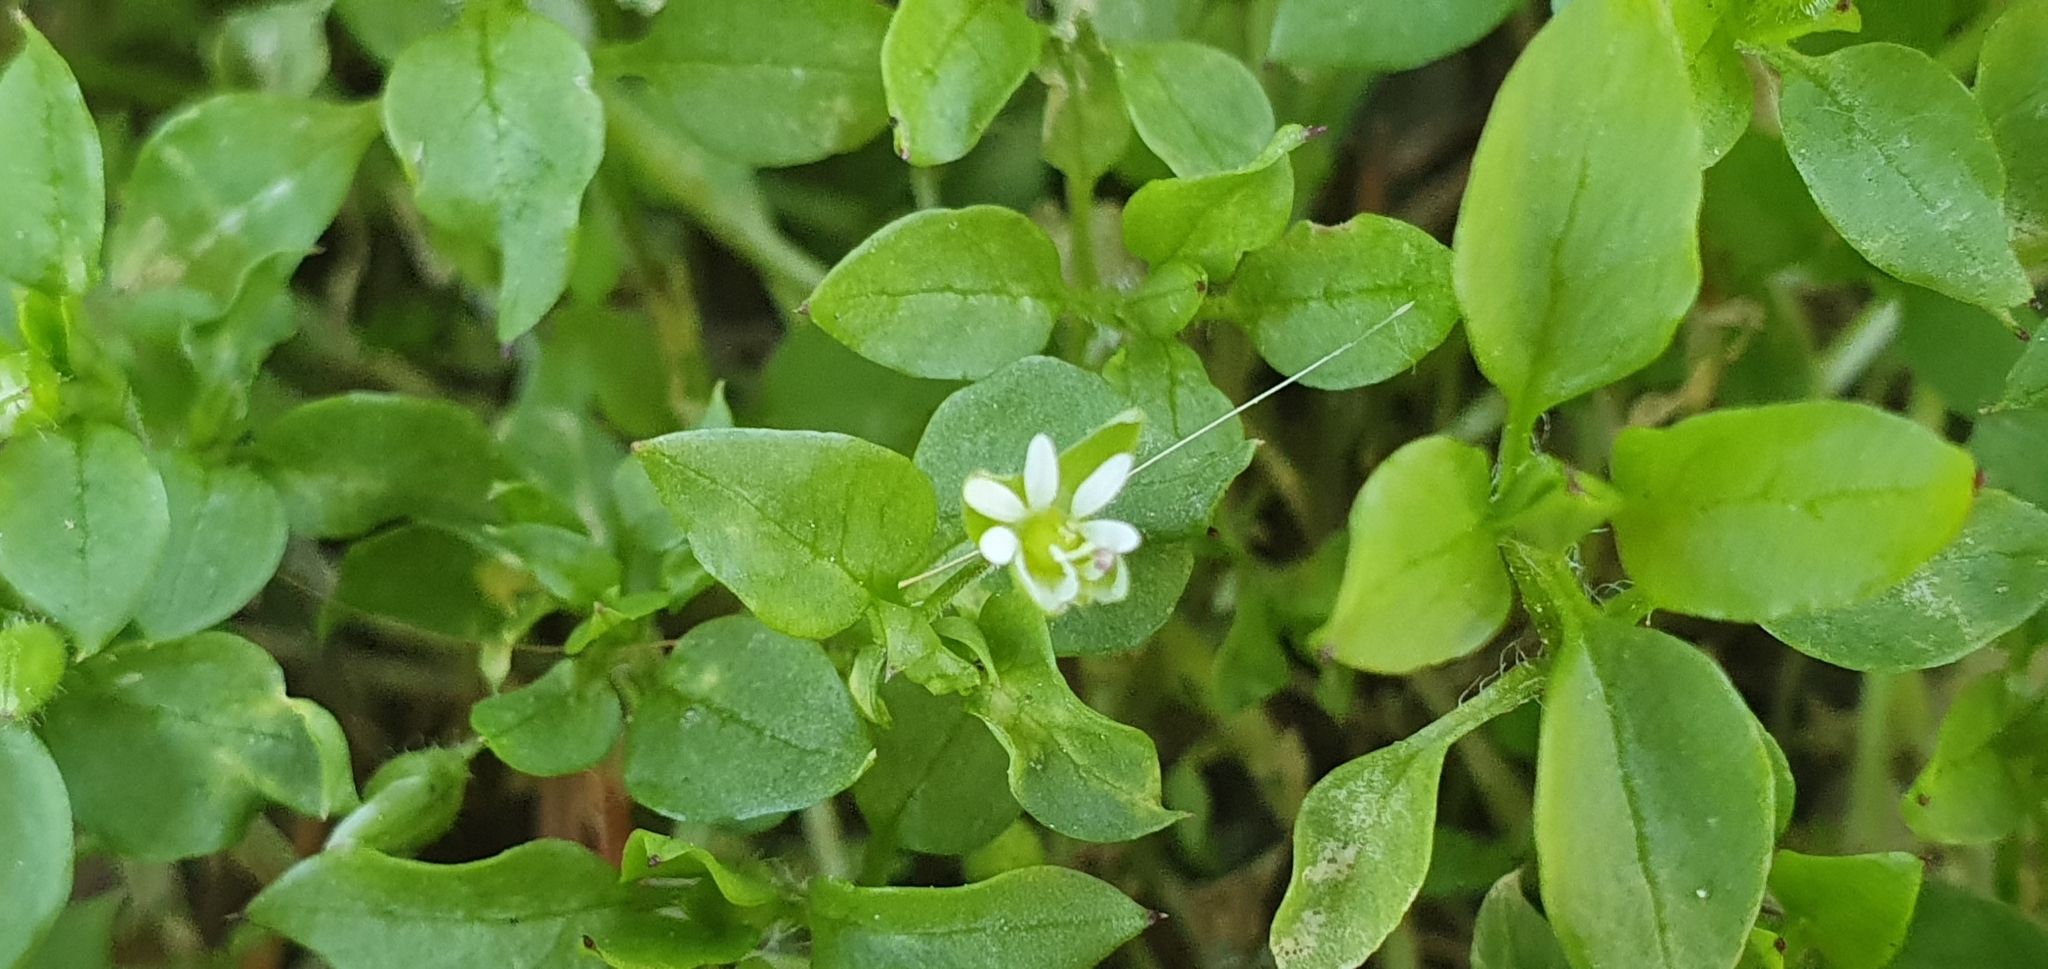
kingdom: Plantae
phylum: Tracheophyta
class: Magnoliopsida
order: Caryophyllales
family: Caryophyllaceae
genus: Stellaria
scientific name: Stellaria media
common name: Common chickweed
